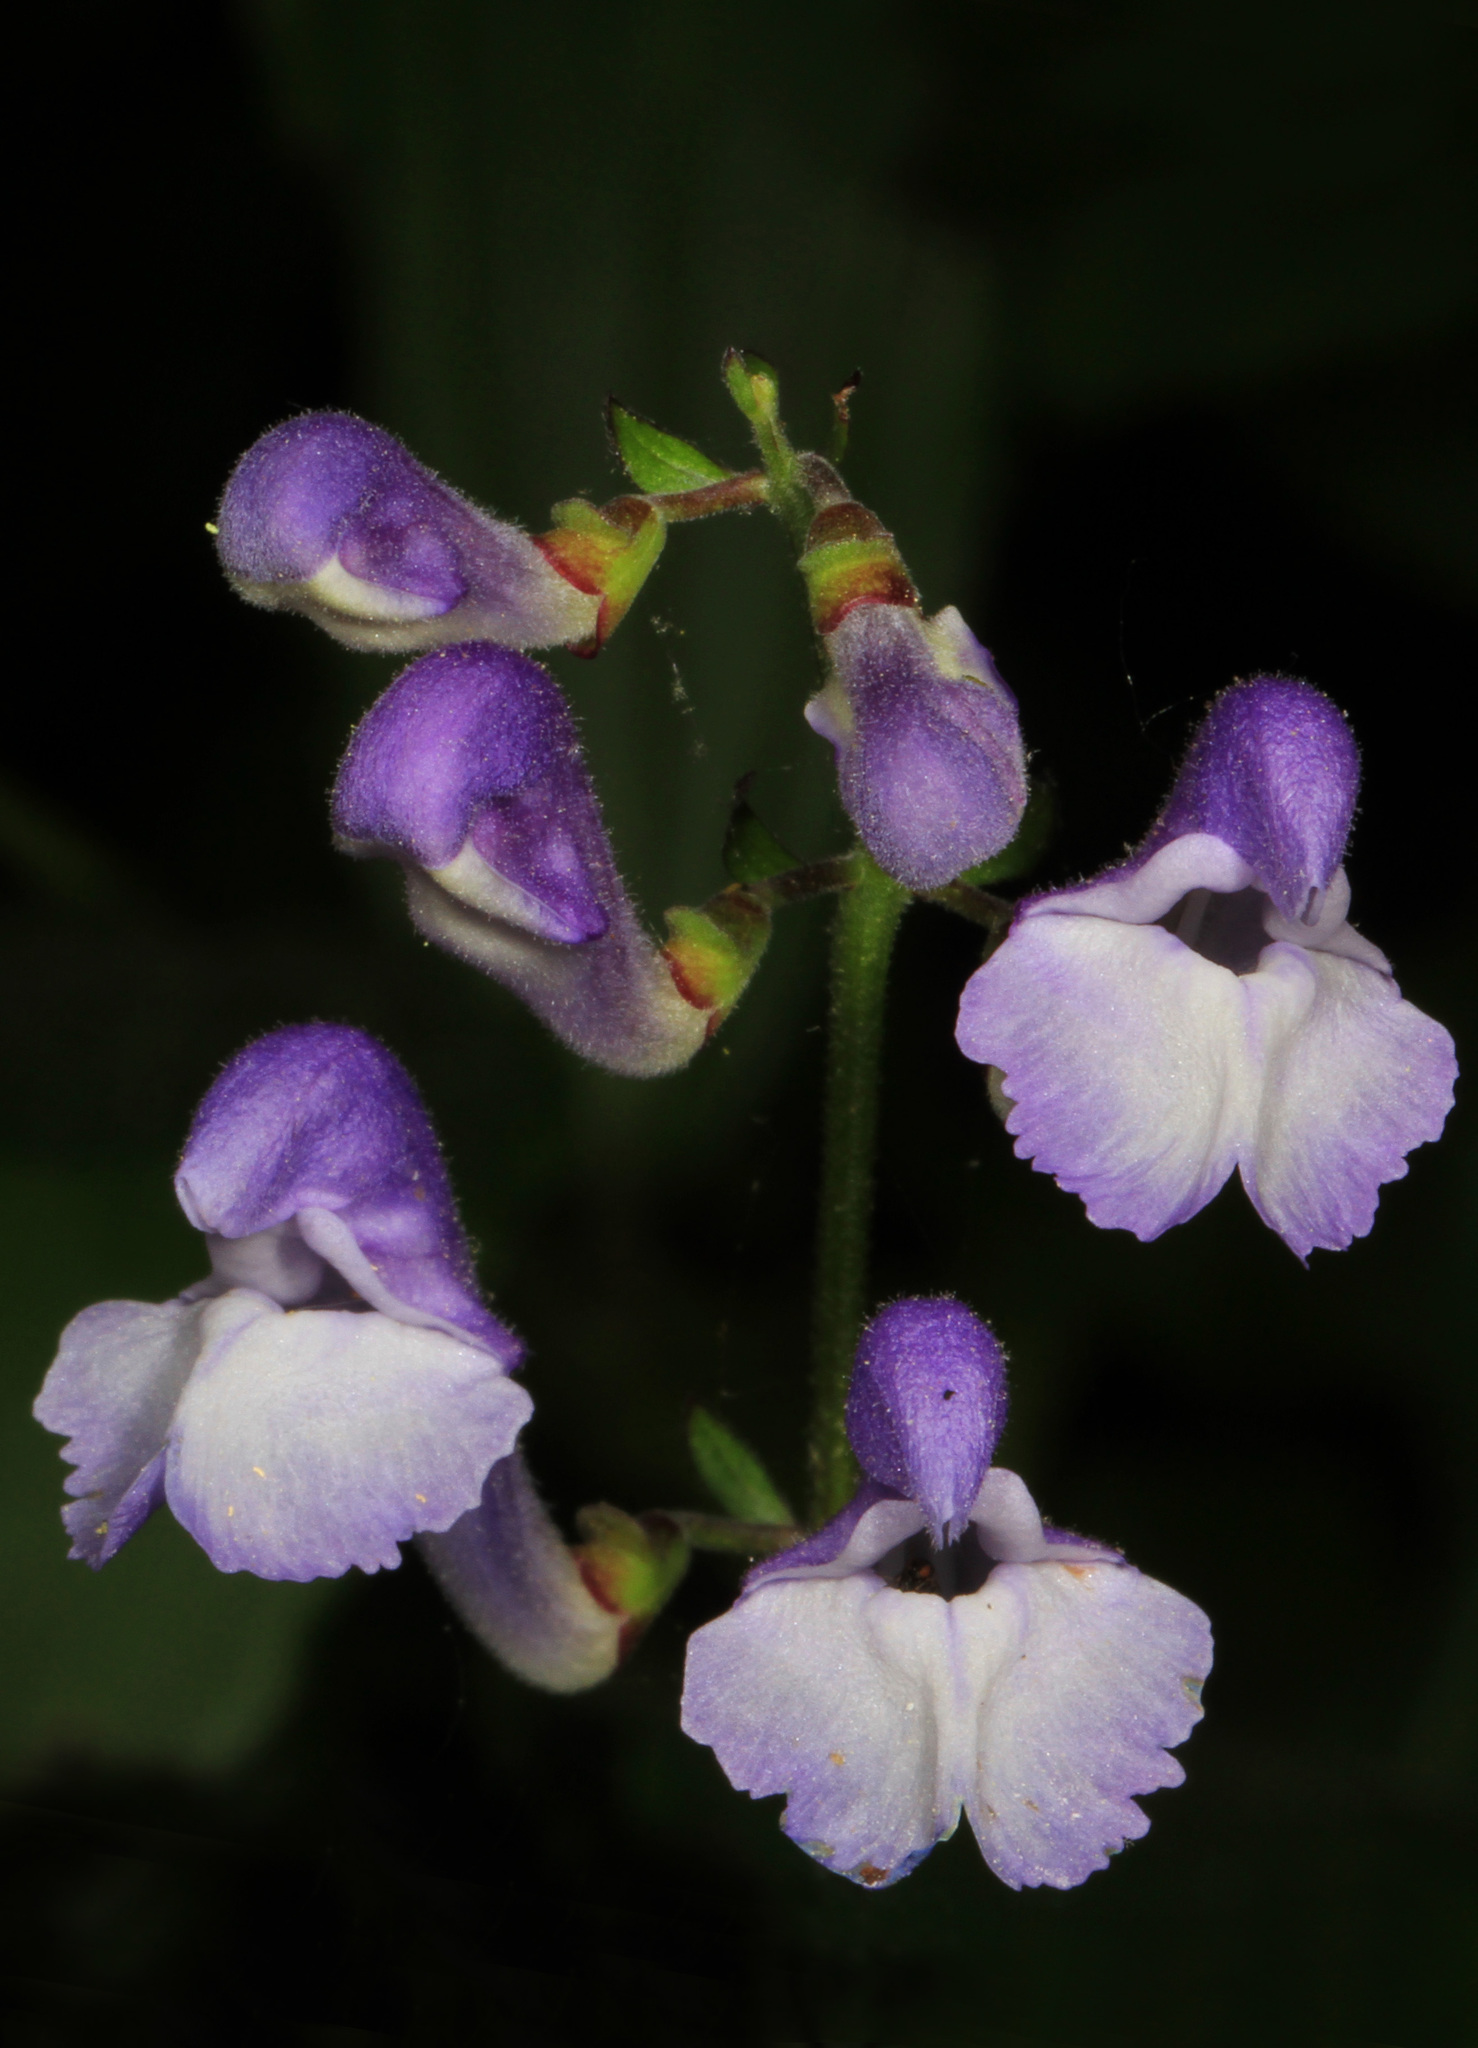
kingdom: Plantae
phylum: Tracheophyta
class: Magnoliopsida
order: Lamiales
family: Lamiaceae
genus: Scutellaria
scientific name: Scutellaria serrata
